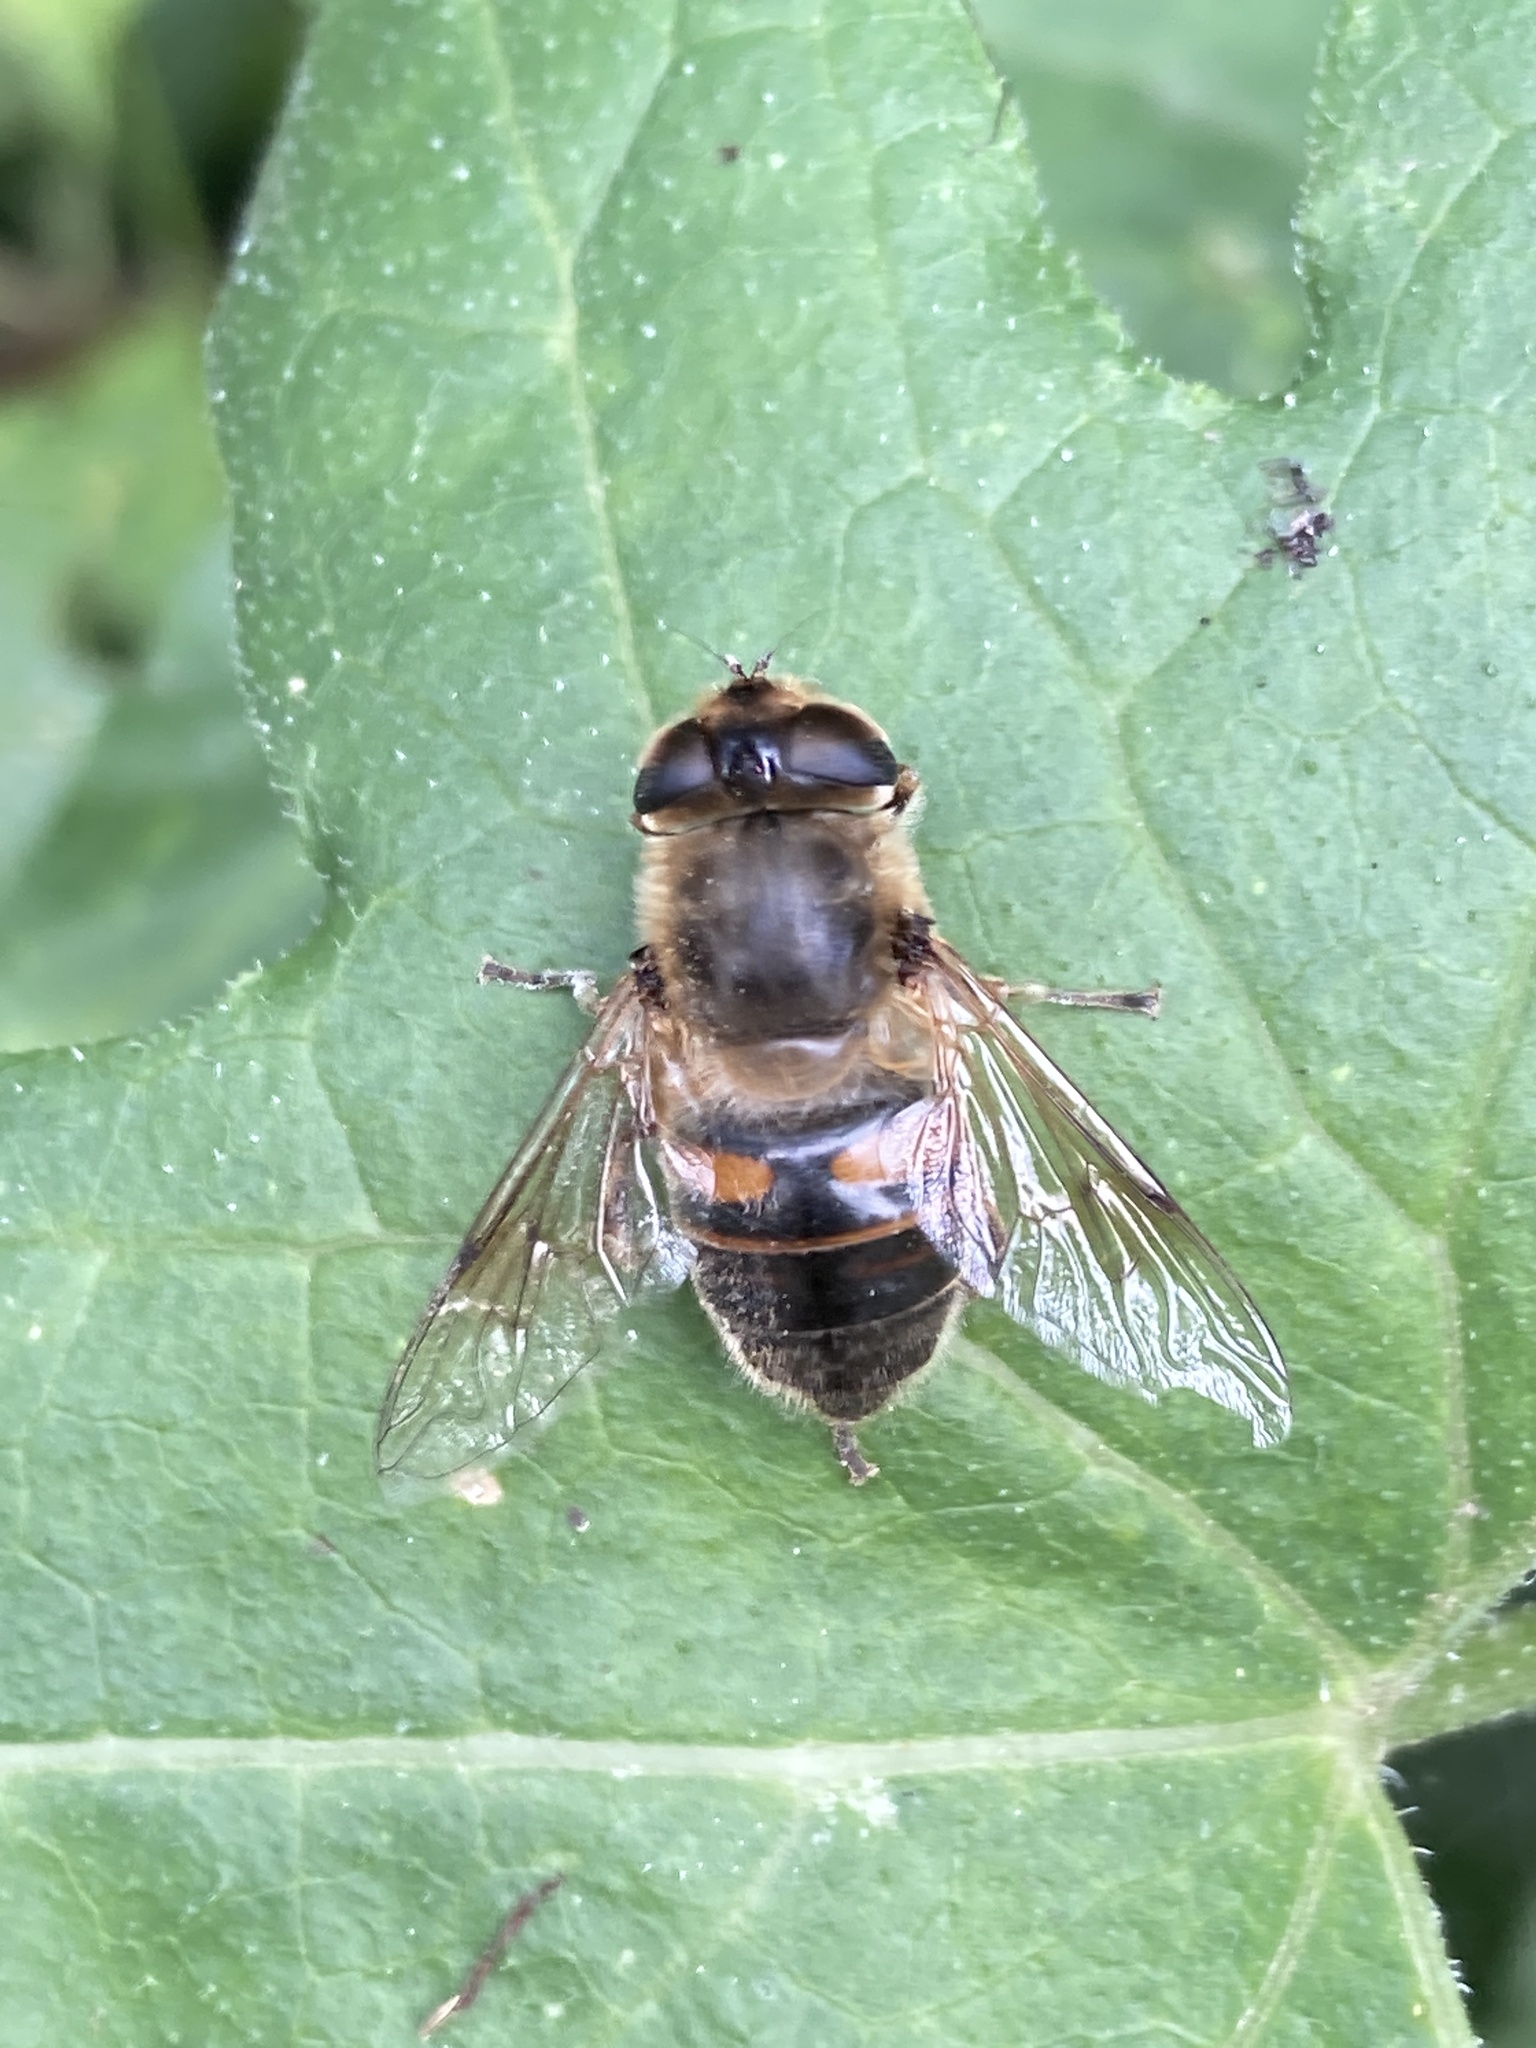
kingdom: Animalia
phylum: Arthropoda
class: Insecta
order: Diptera
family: Syrphidae
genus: Eristalis
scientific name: Eristalis tenax
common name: Drone fly
